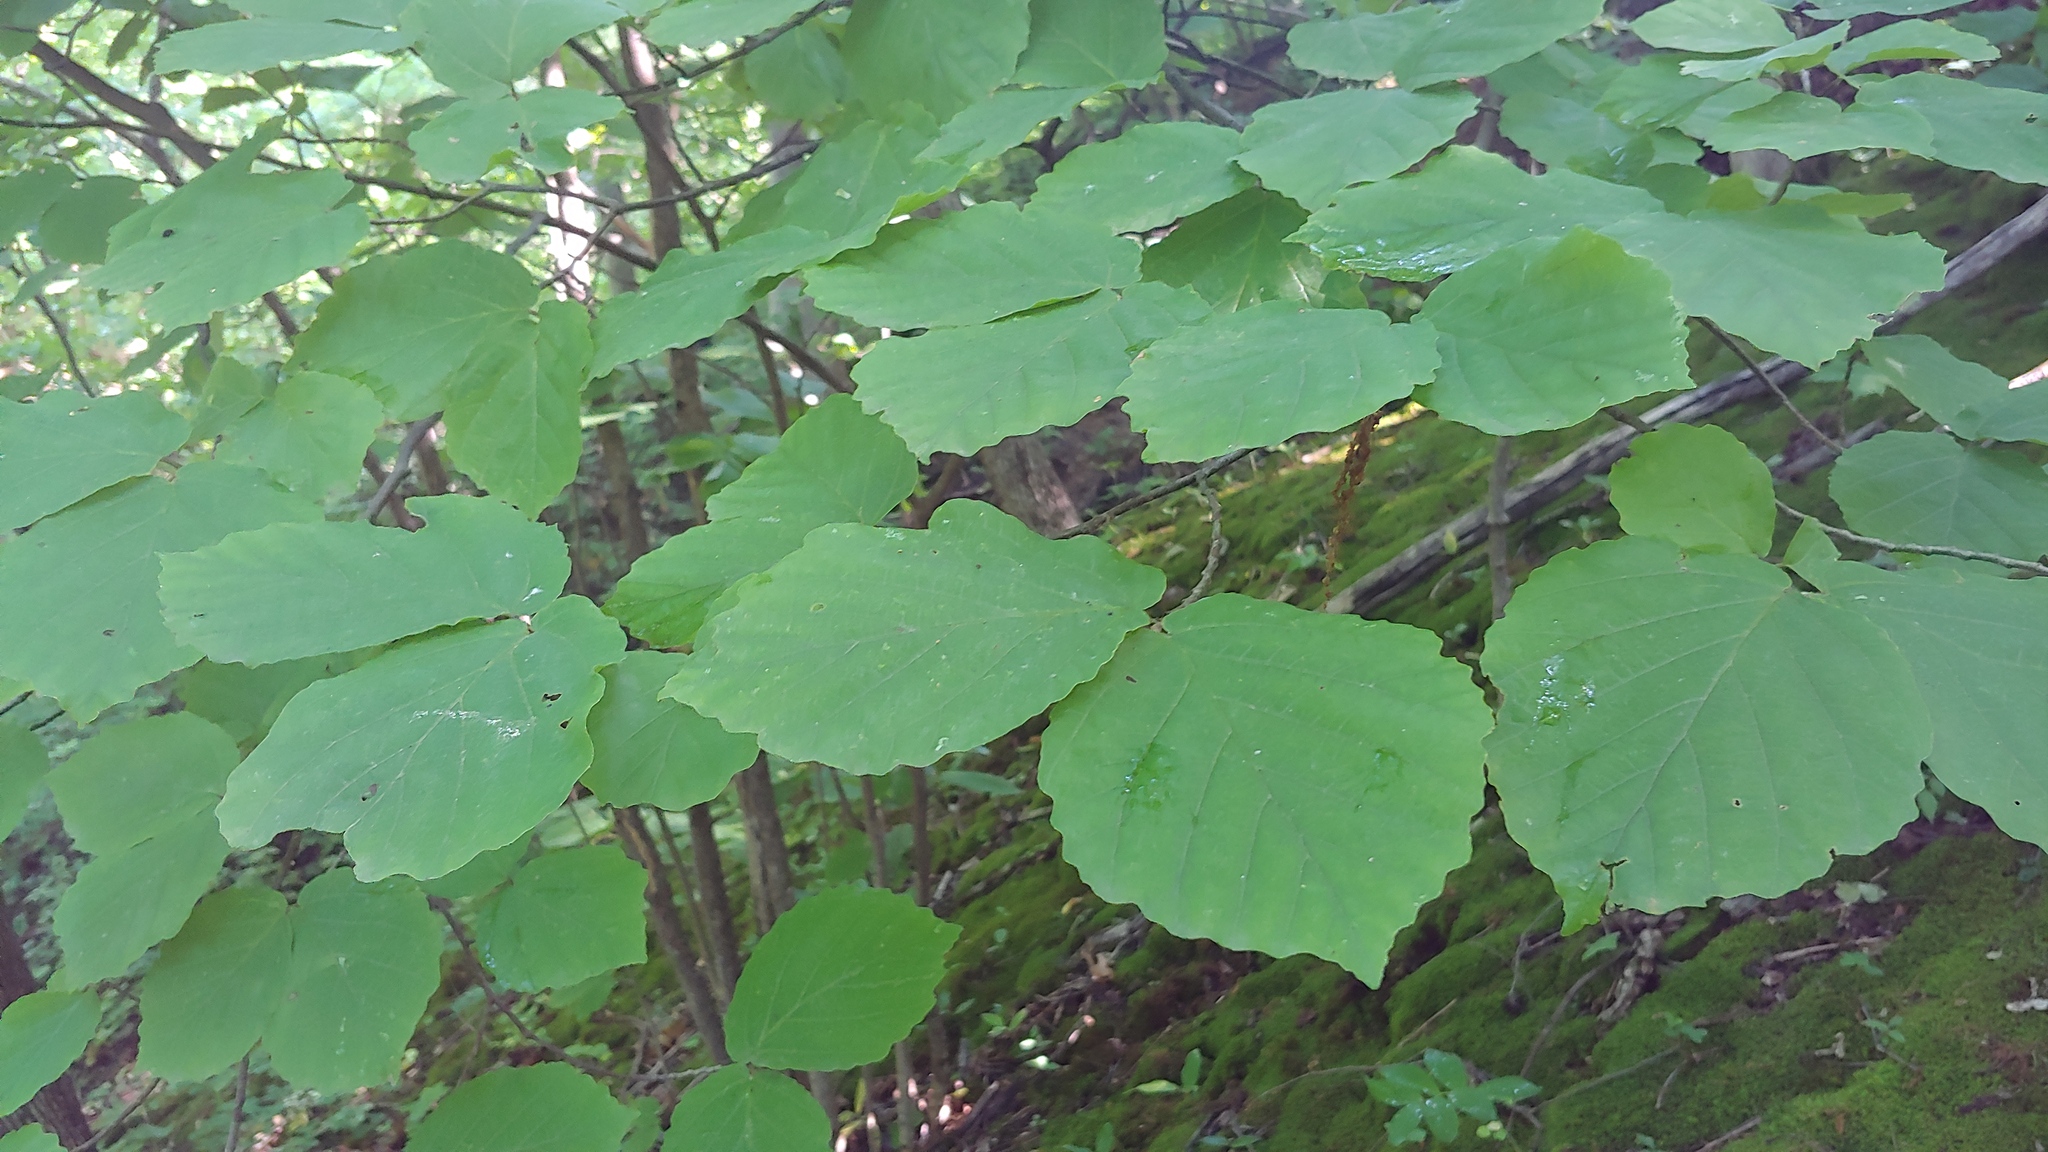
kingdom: Plantae
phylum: Tracheophyta
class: Magnoliopsida
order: Saxifragales
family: Hamamelidaceae
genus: Hamamelis
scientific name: Hamamelis virginiana
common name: Witch-hazel
